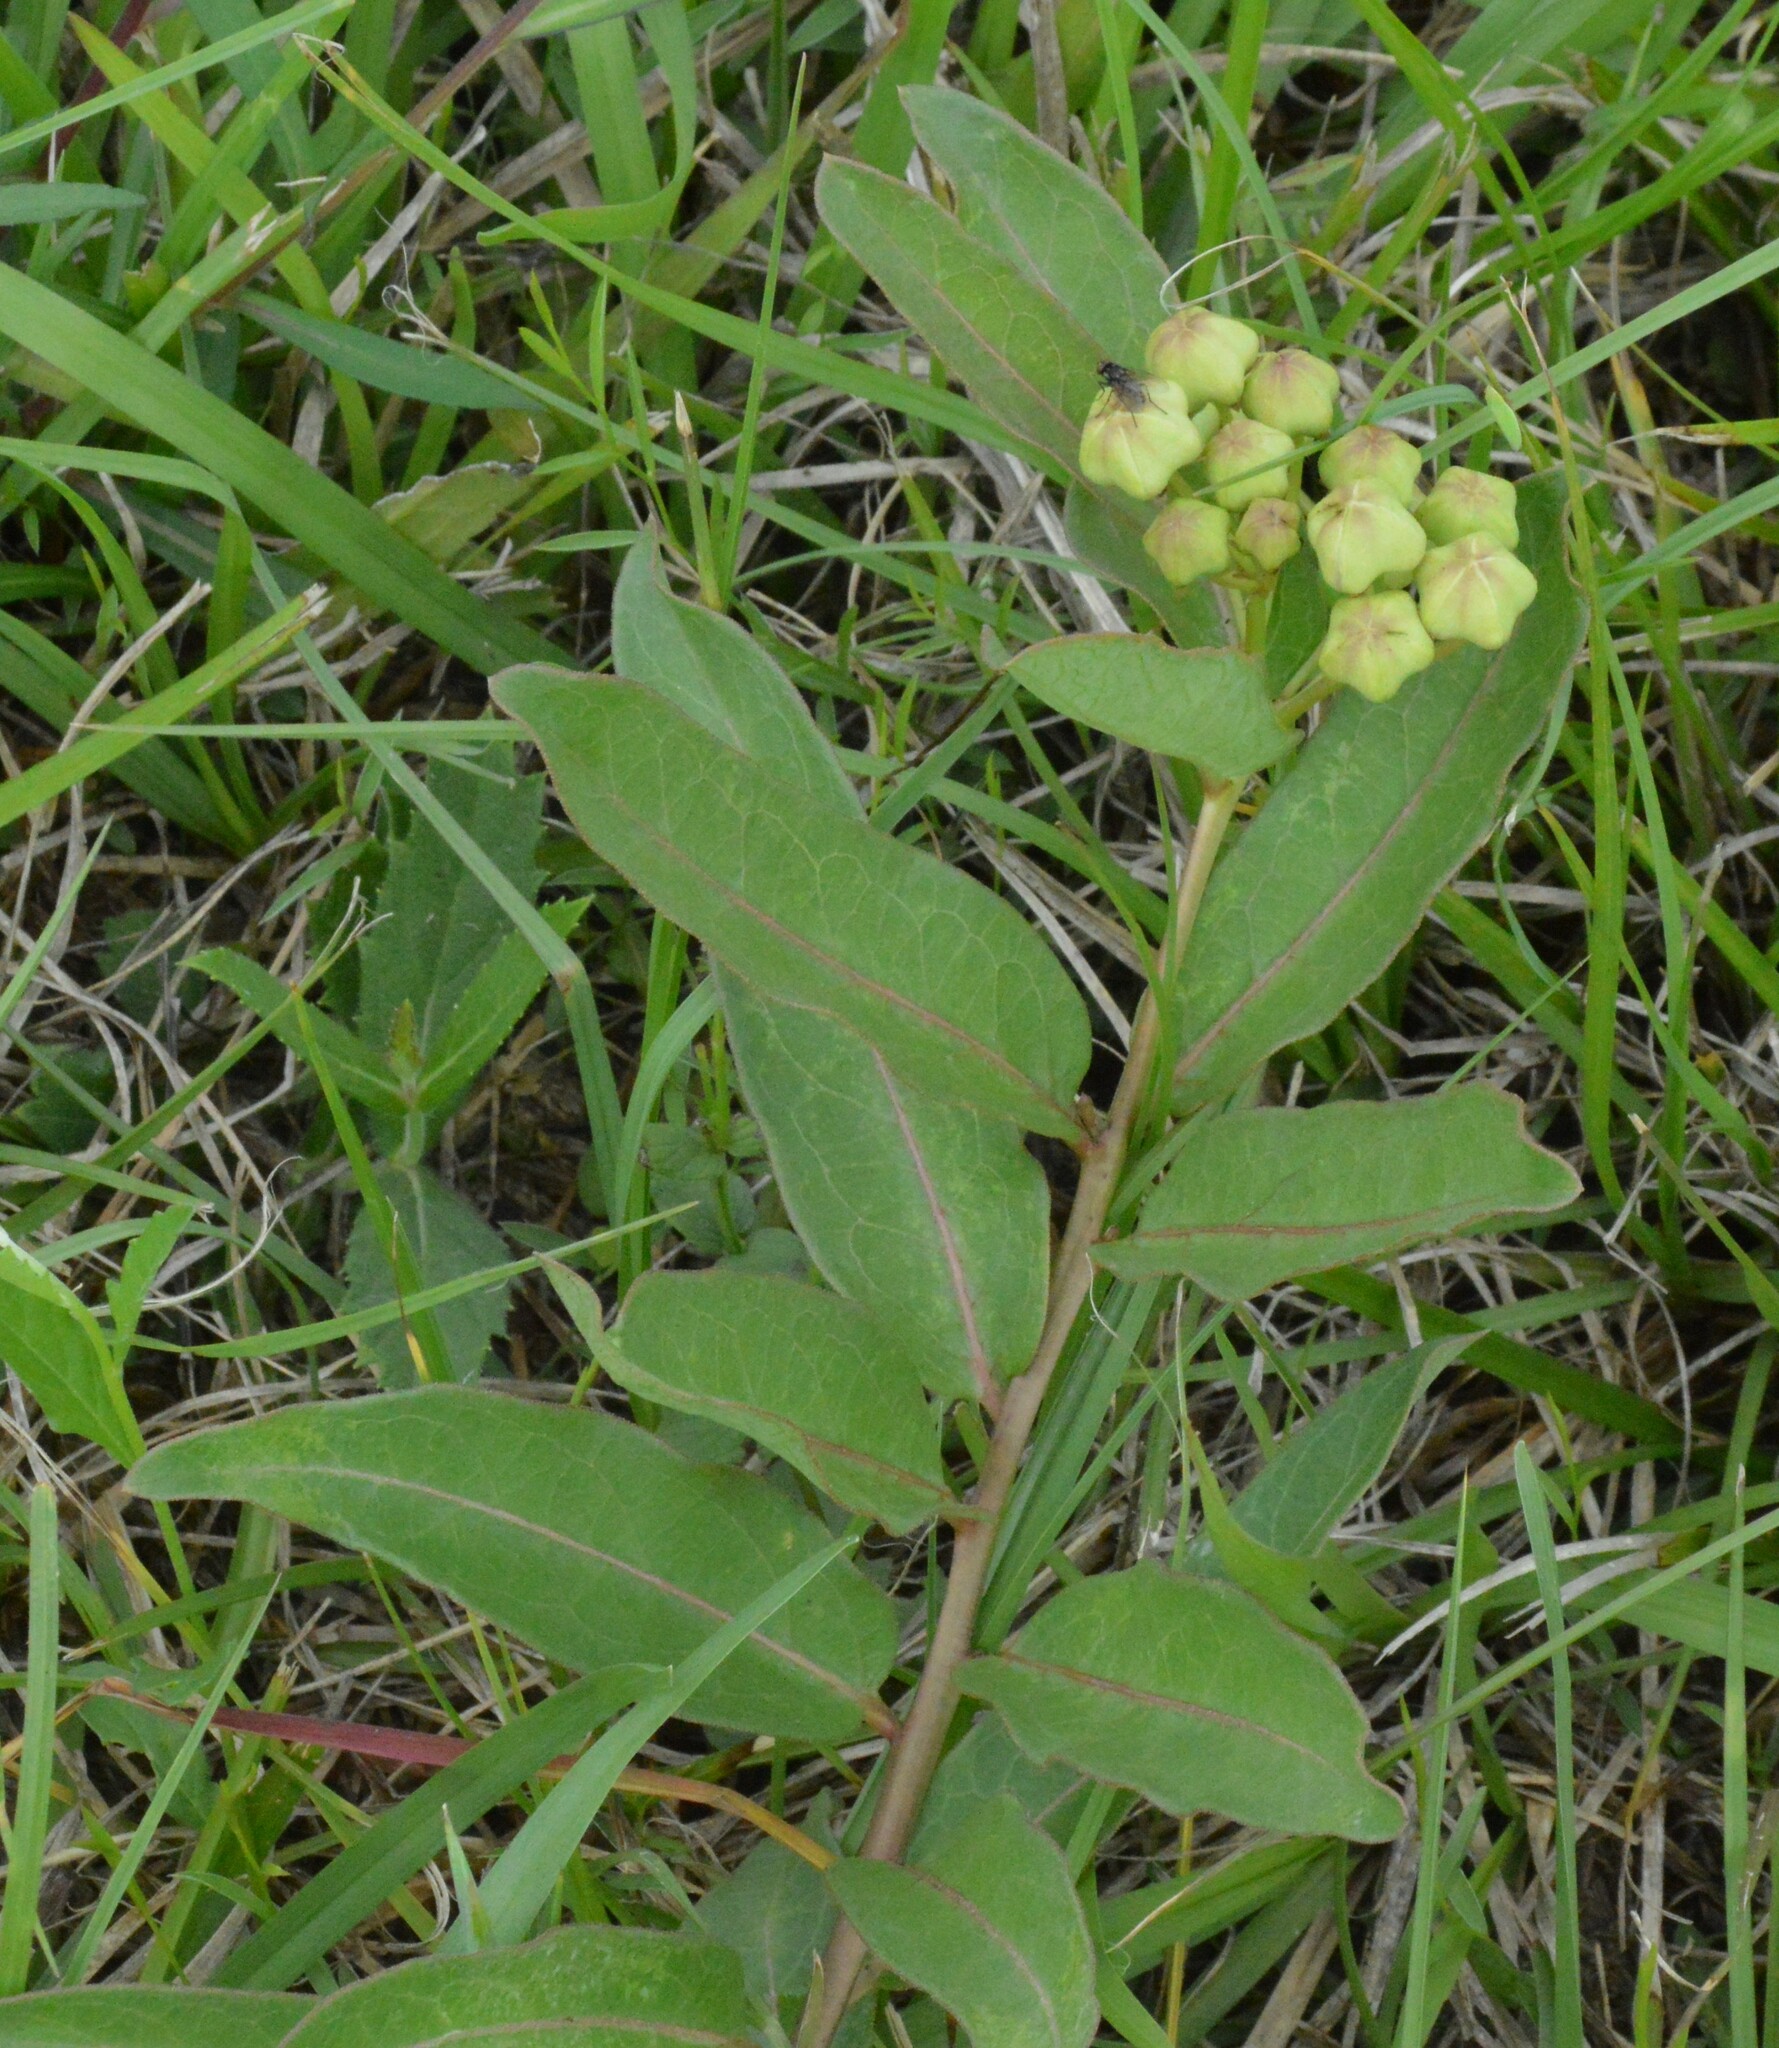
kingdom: Plantae
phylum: Tracheophyta
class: Magnoliopsida
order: Gentianales
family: Apocynaceae
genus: Asclepias
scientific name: Asclepias viridis
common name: Antelope-horns
